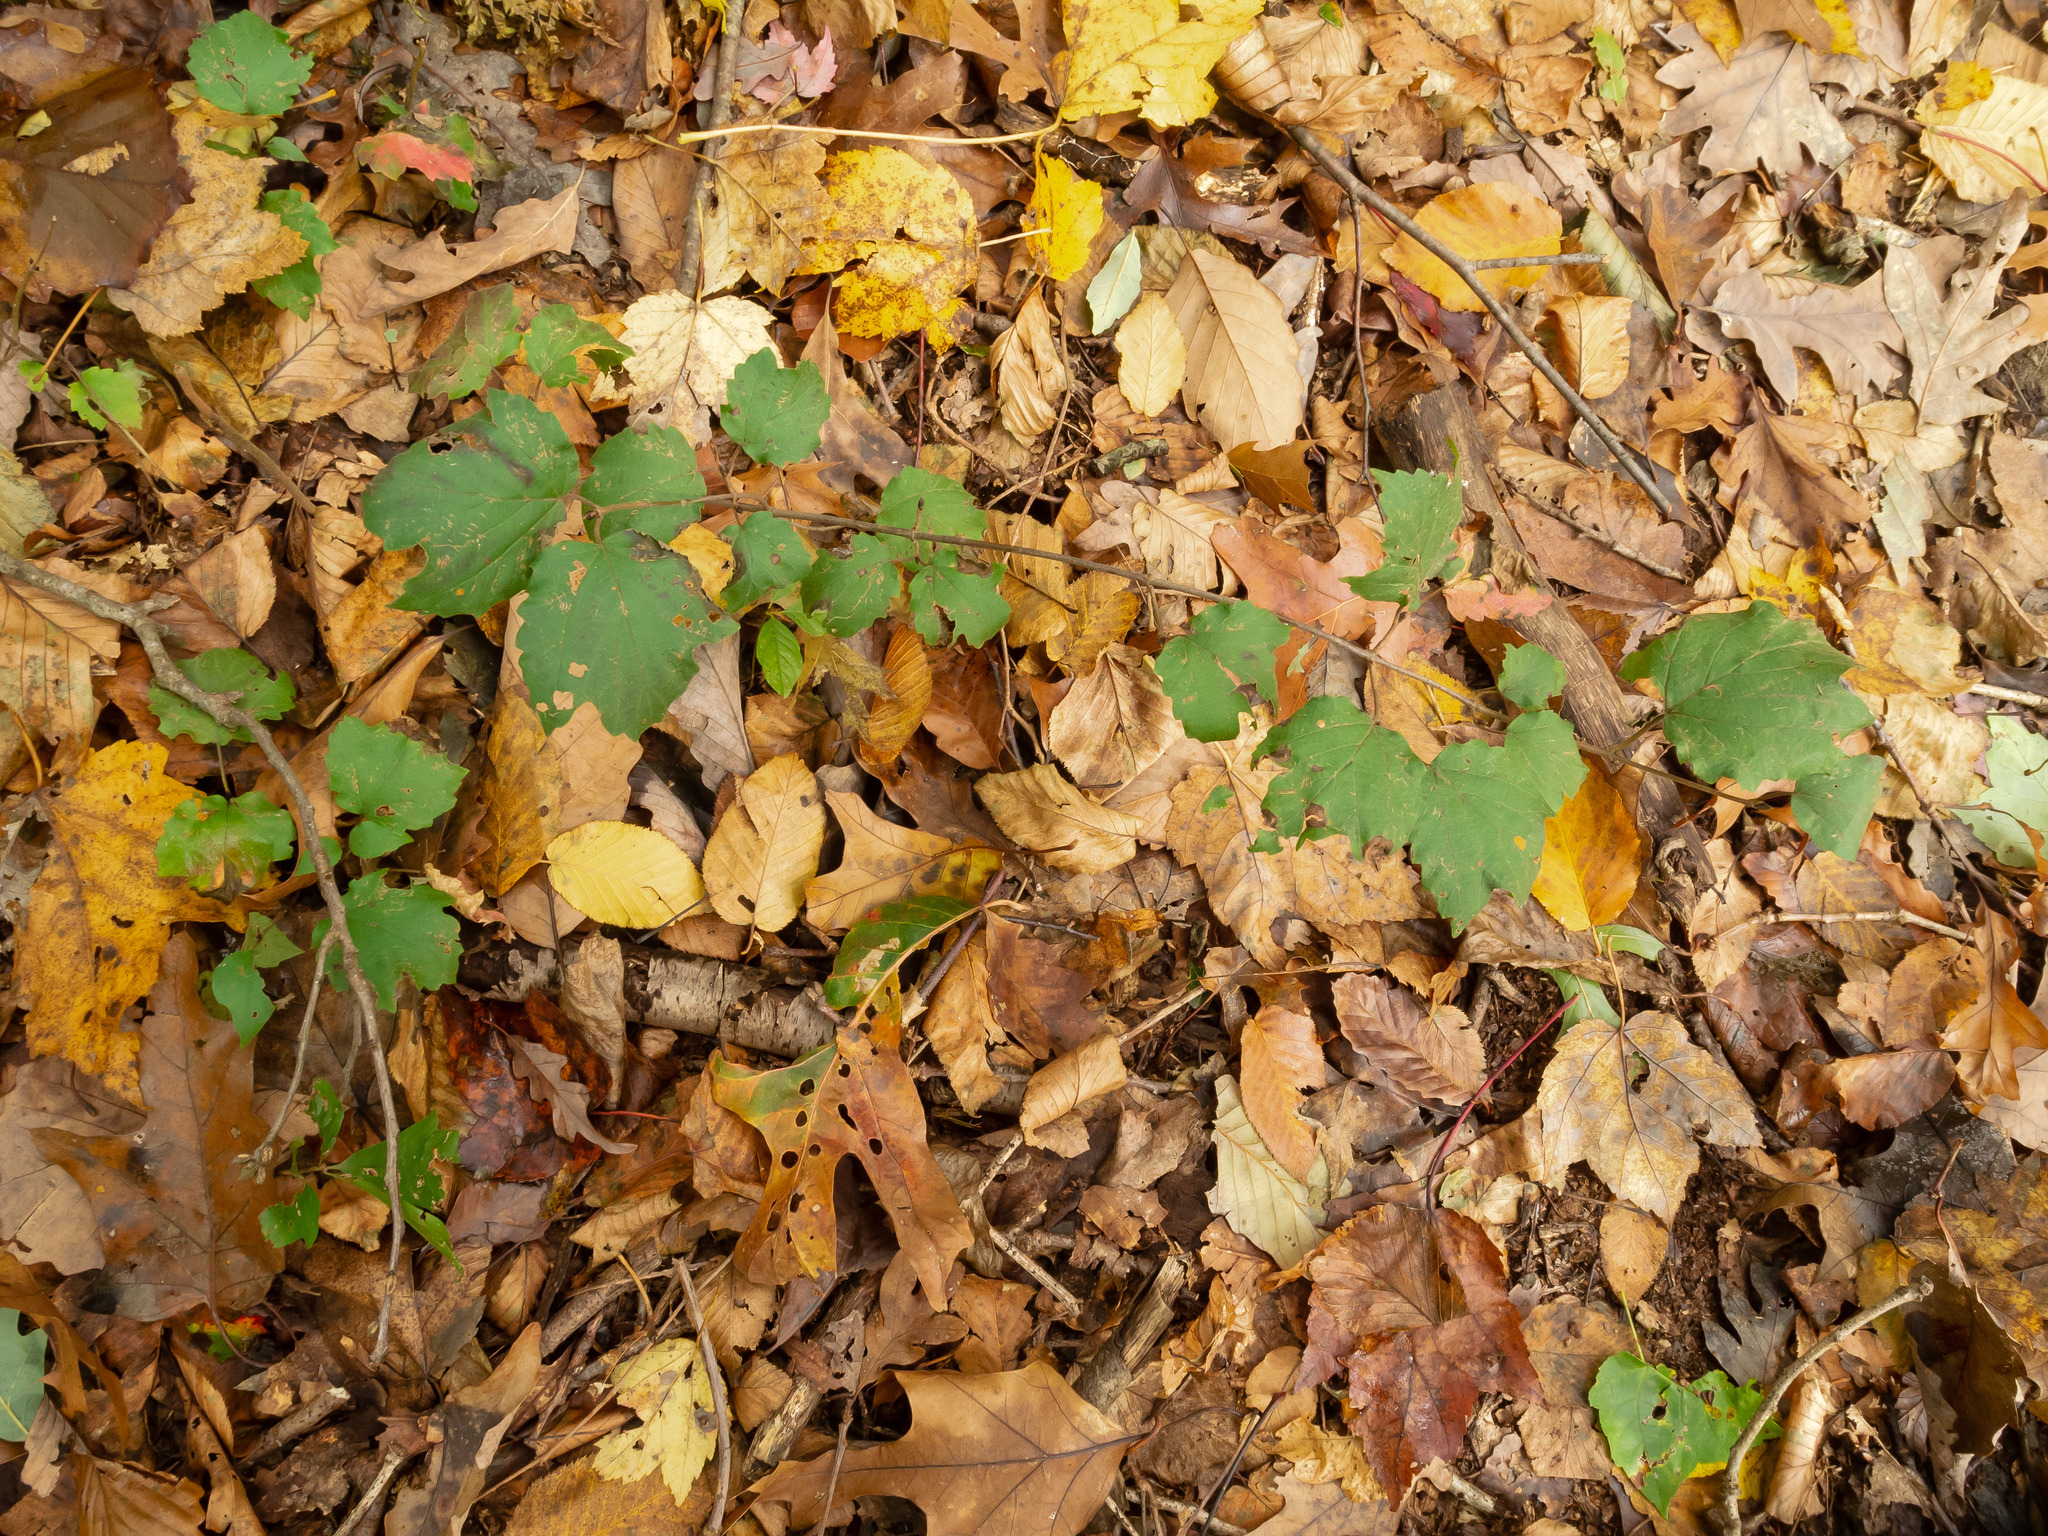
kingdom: Plantae
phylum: Tracheophyta
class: Magnoliopsida
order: Dipsacales
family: Viburnaceae
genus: Viburnum
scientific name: Viburnum acerifolium
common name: Dockmackie
